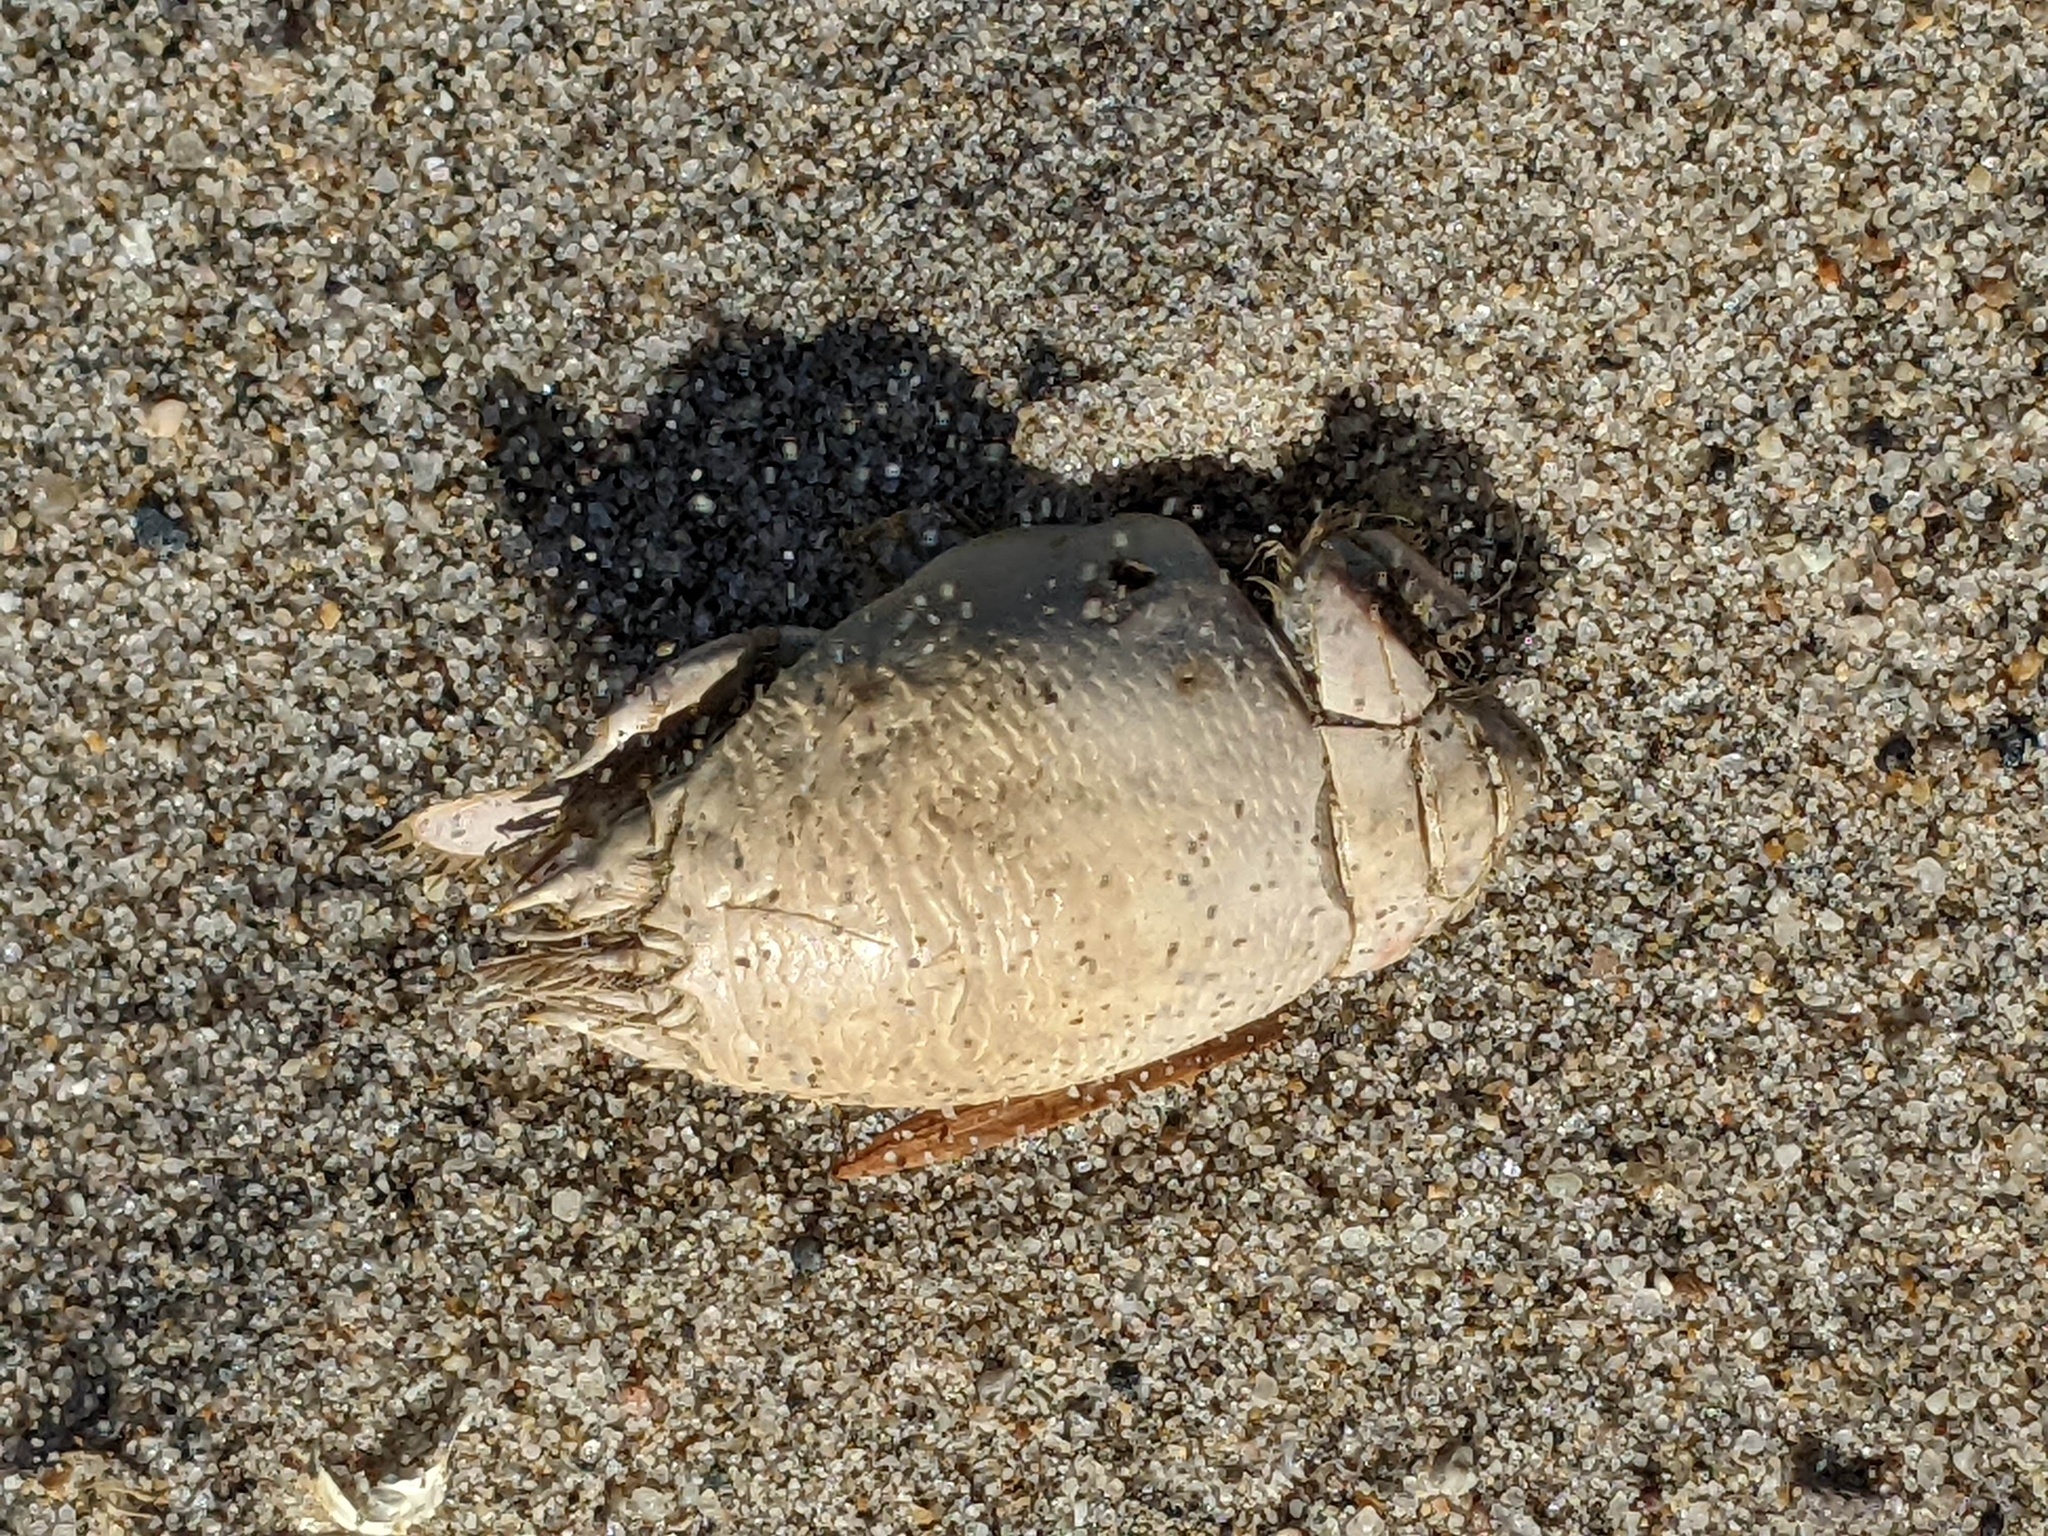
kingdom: Animalia
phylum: Arthropoda
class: Malacostraca
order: Decapoda
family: Hippidae
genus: Emerita
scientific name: Emerita analoga
